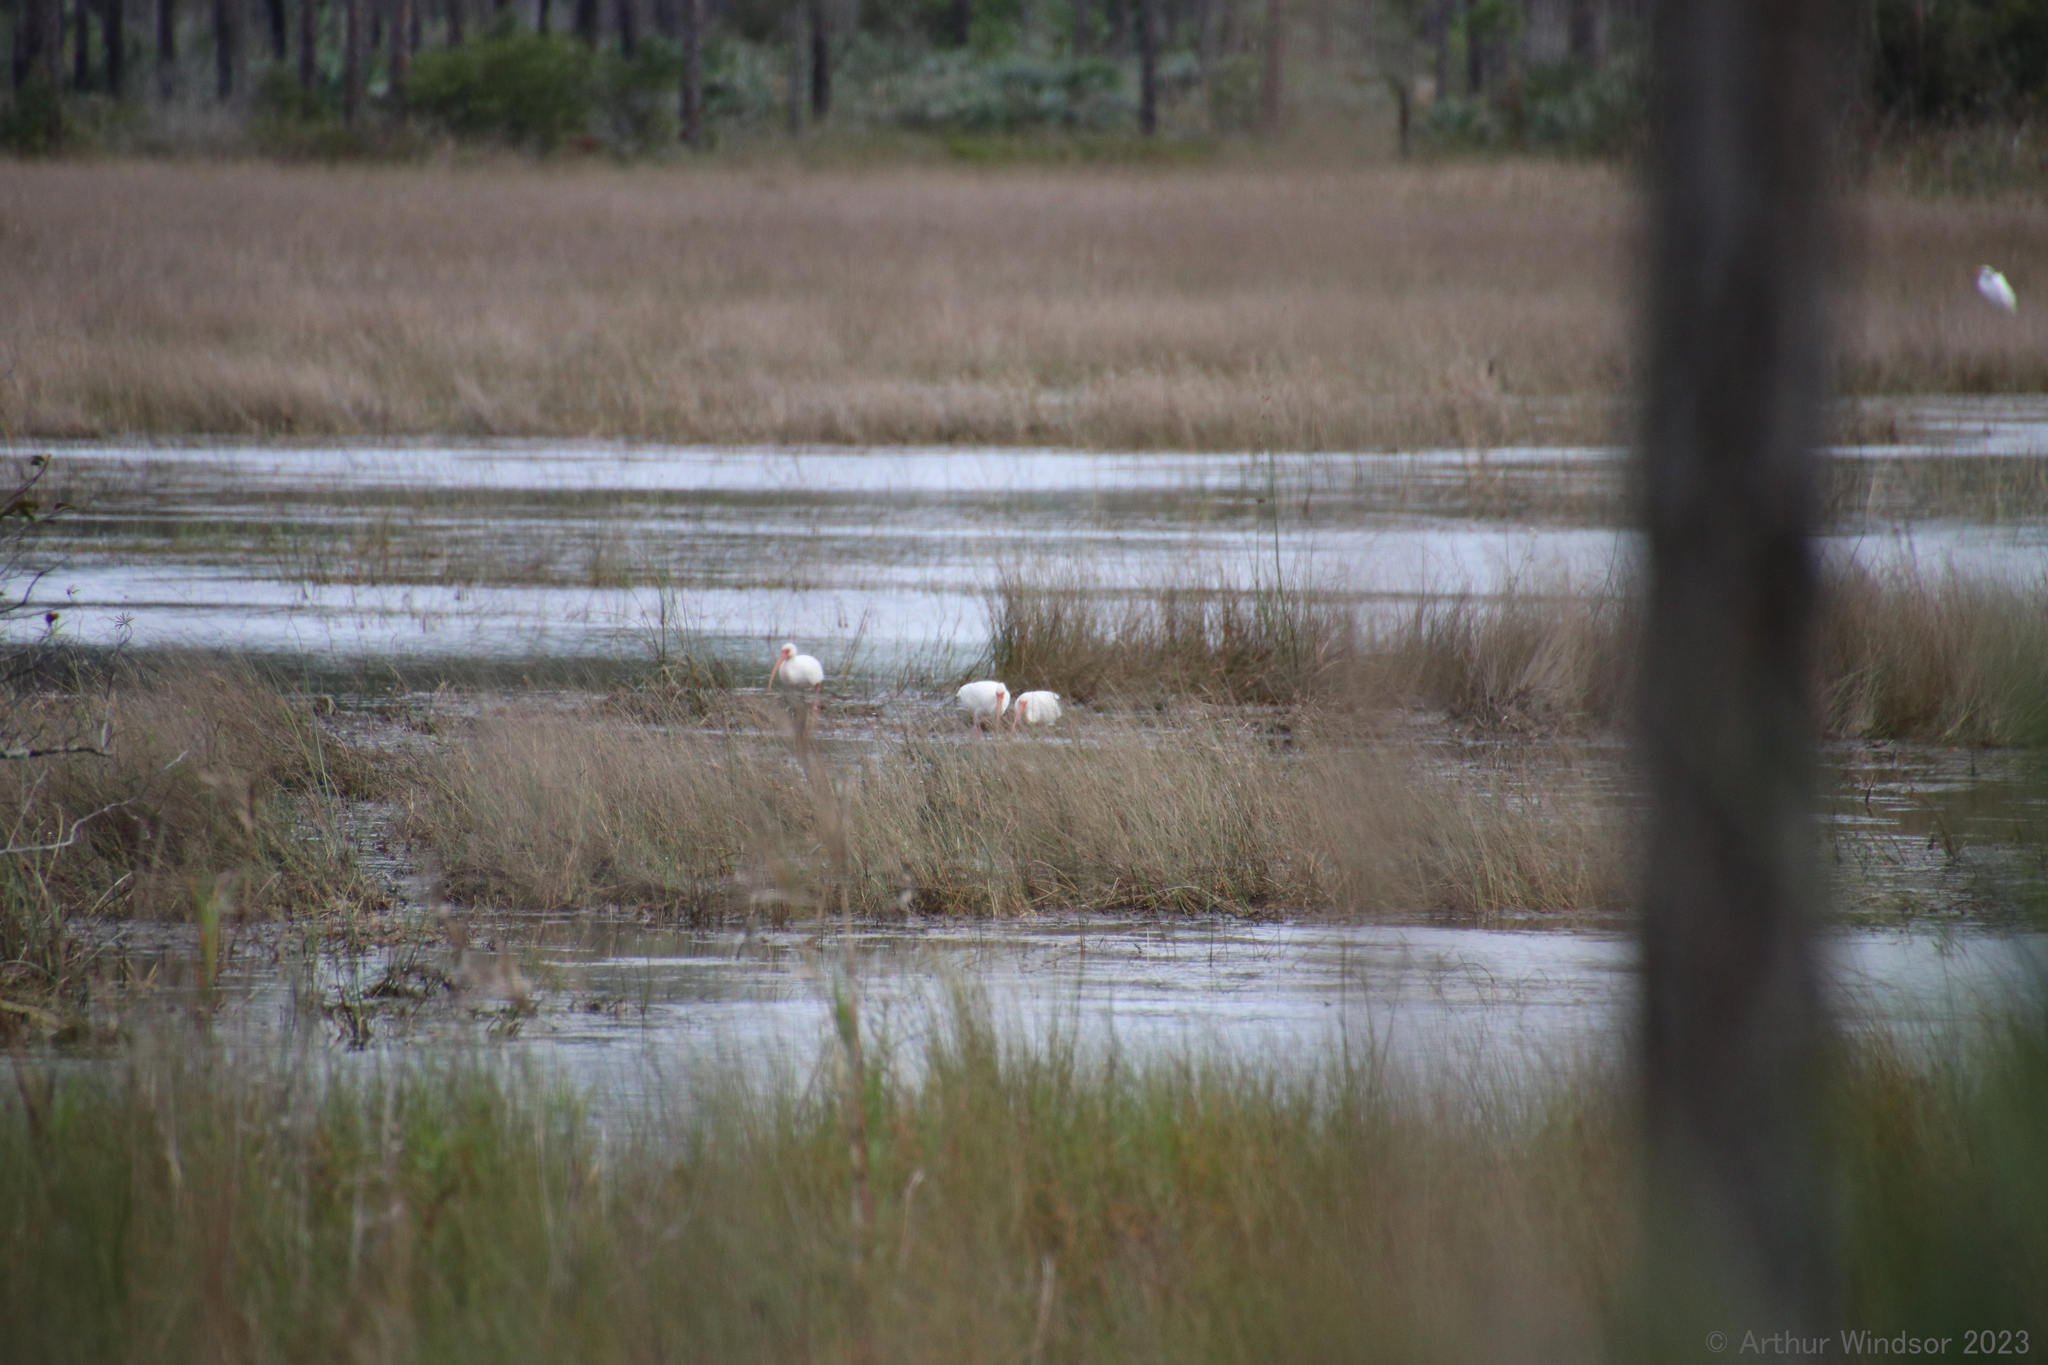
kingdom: Animalia
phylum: Chordata
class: Aves
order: Pelecaniformes
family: Threskiornithidae
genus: Eudocimus
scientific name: Eudocimus albus
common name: White ibis
